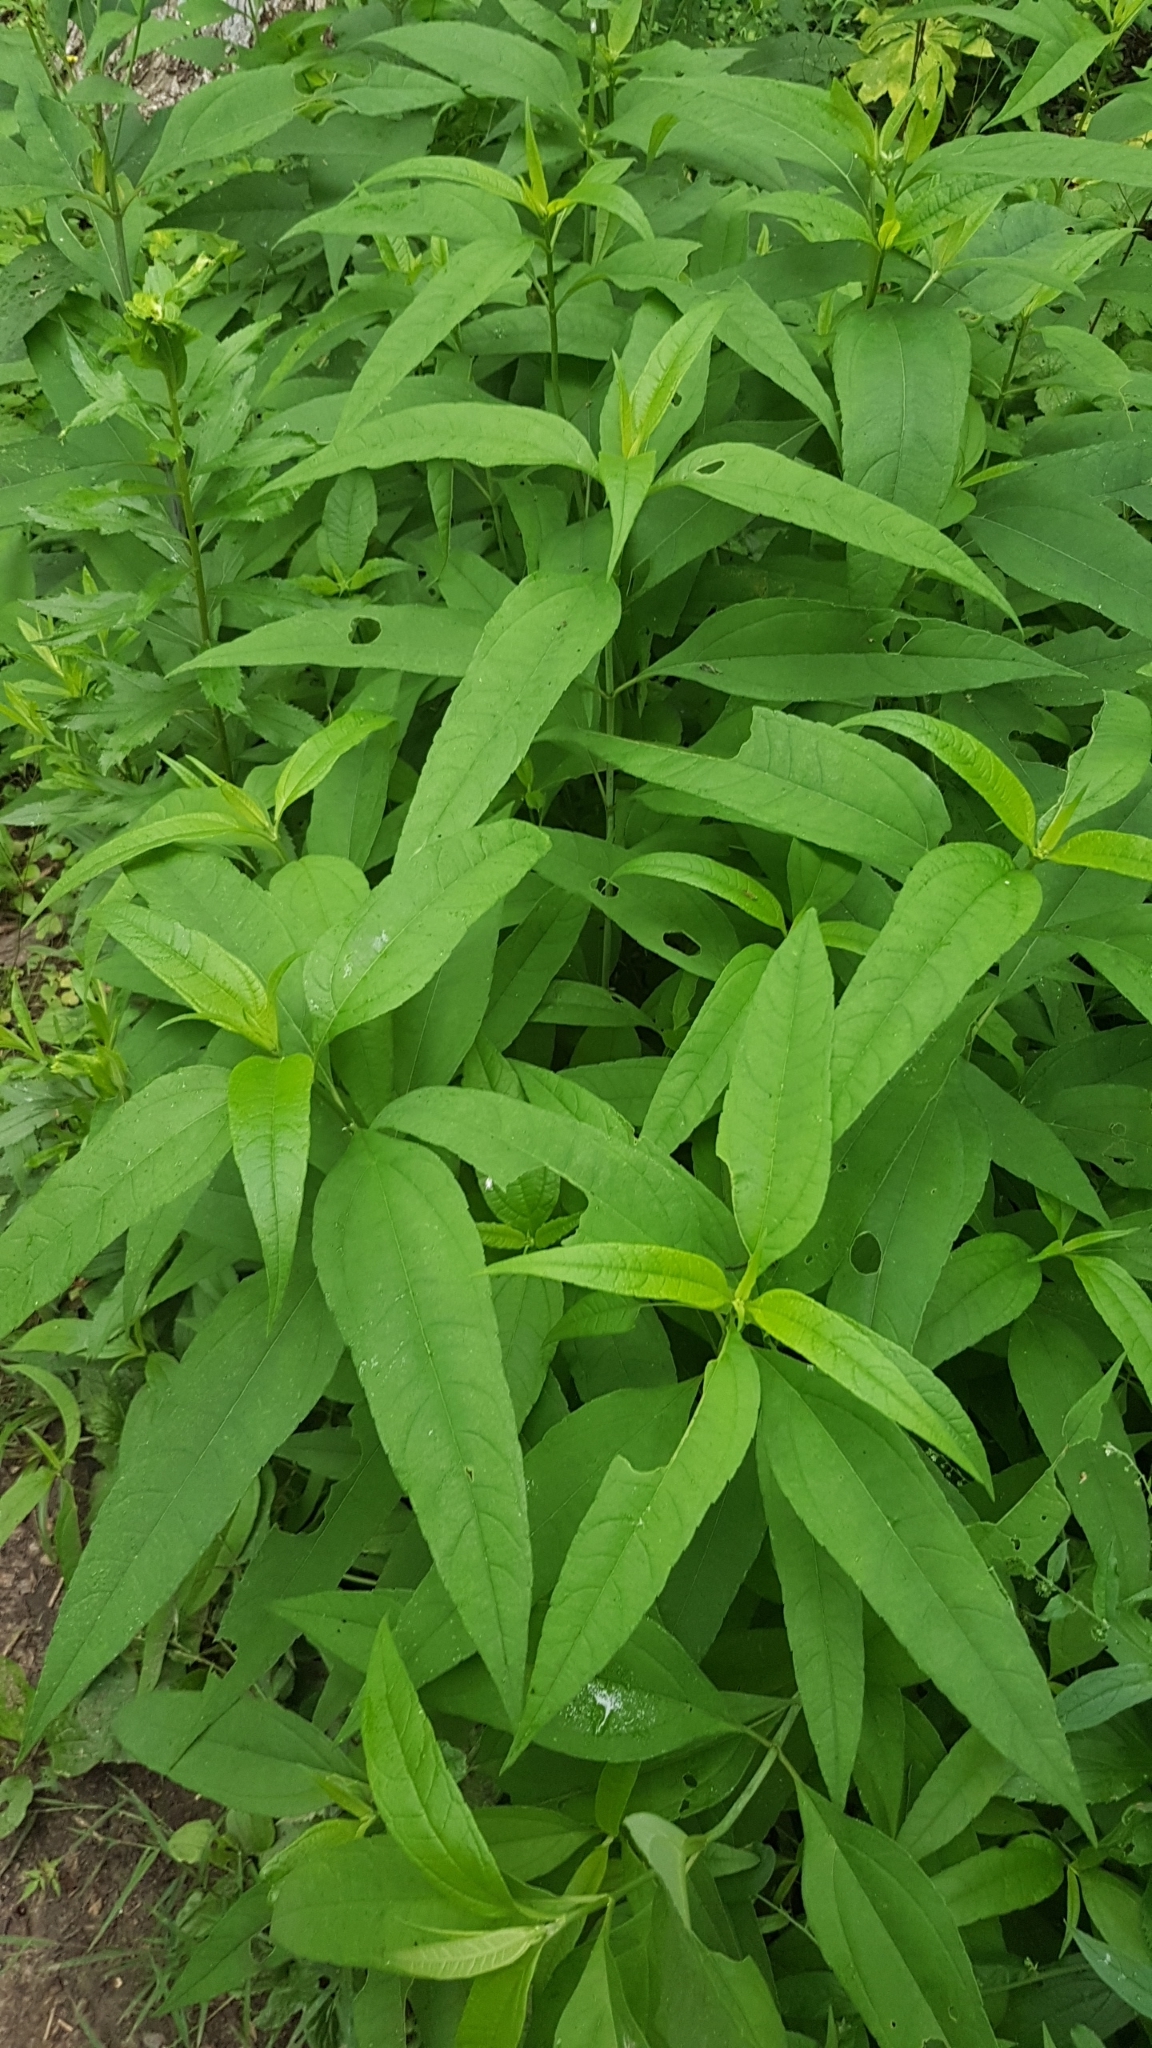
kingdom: Plantae
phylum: Tracheophyta
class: Magnoliopsida
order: Asterales
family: Asteraceae
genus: Helianthus
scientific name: Helianthus laetiflorus
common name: Perennial sunflower
